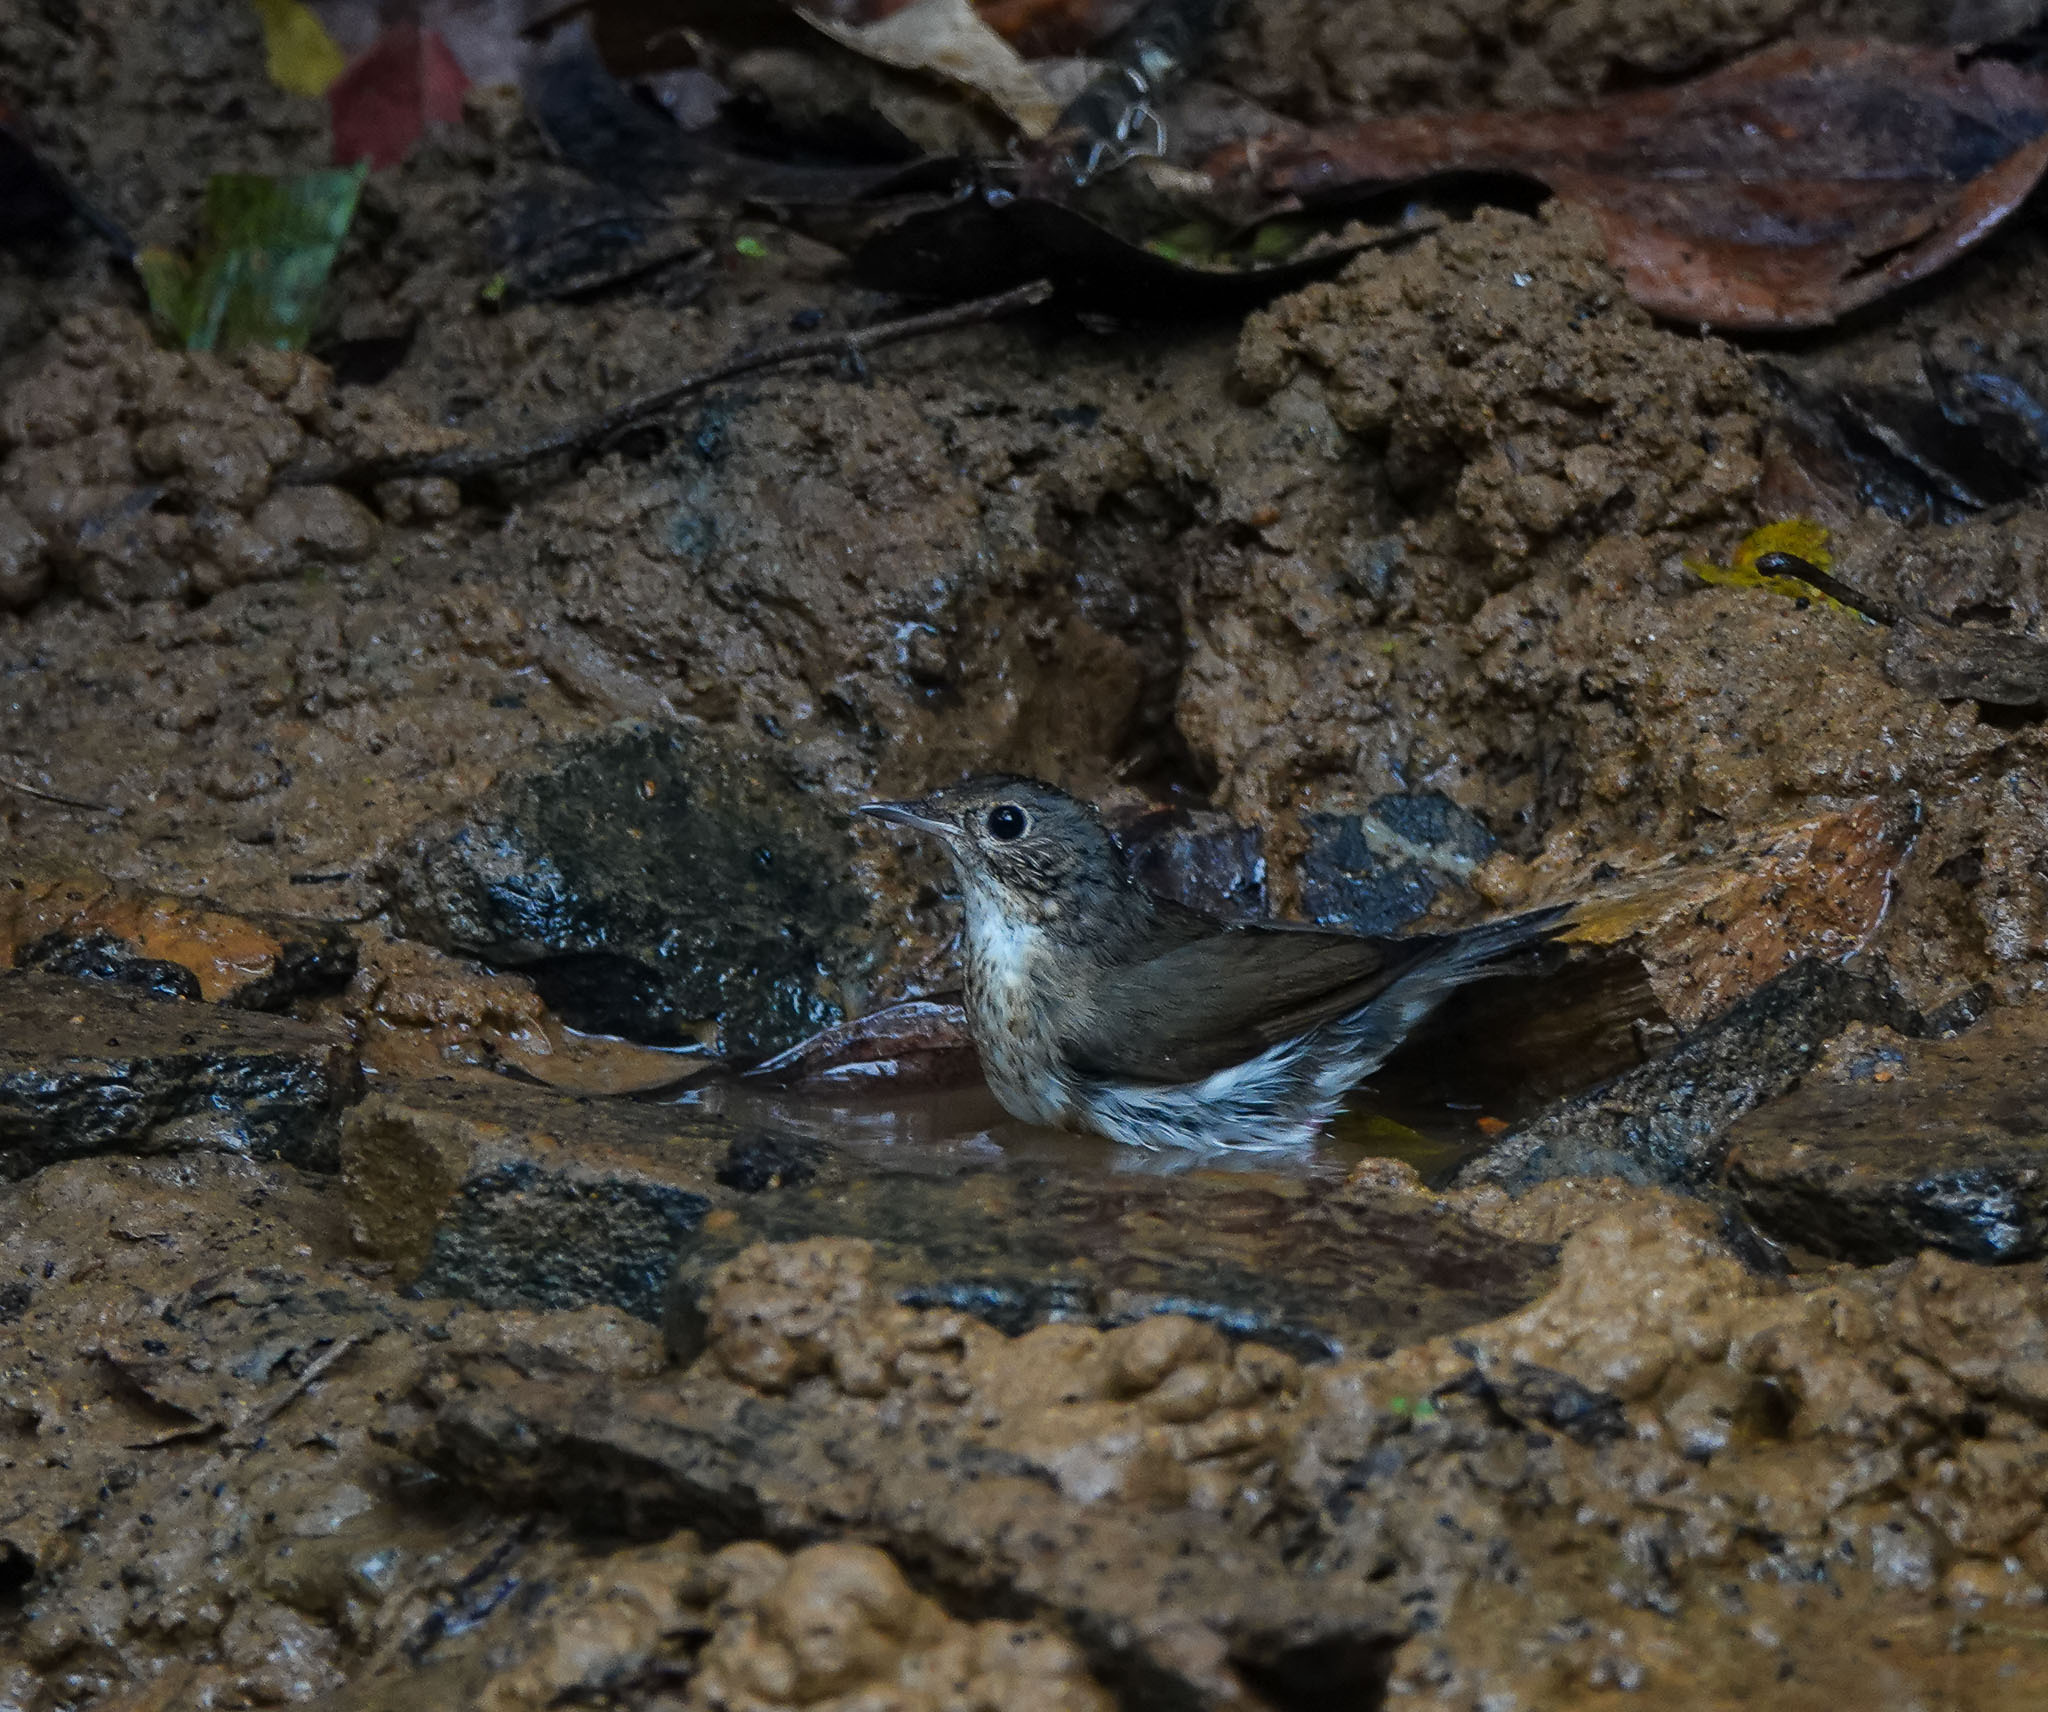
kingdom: Animalia
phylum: Chordata
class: Aves
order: Passeriformes
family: Muscicapidae
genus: Luscinia
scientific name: Luscinia cyane
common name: Siberian blue robin
